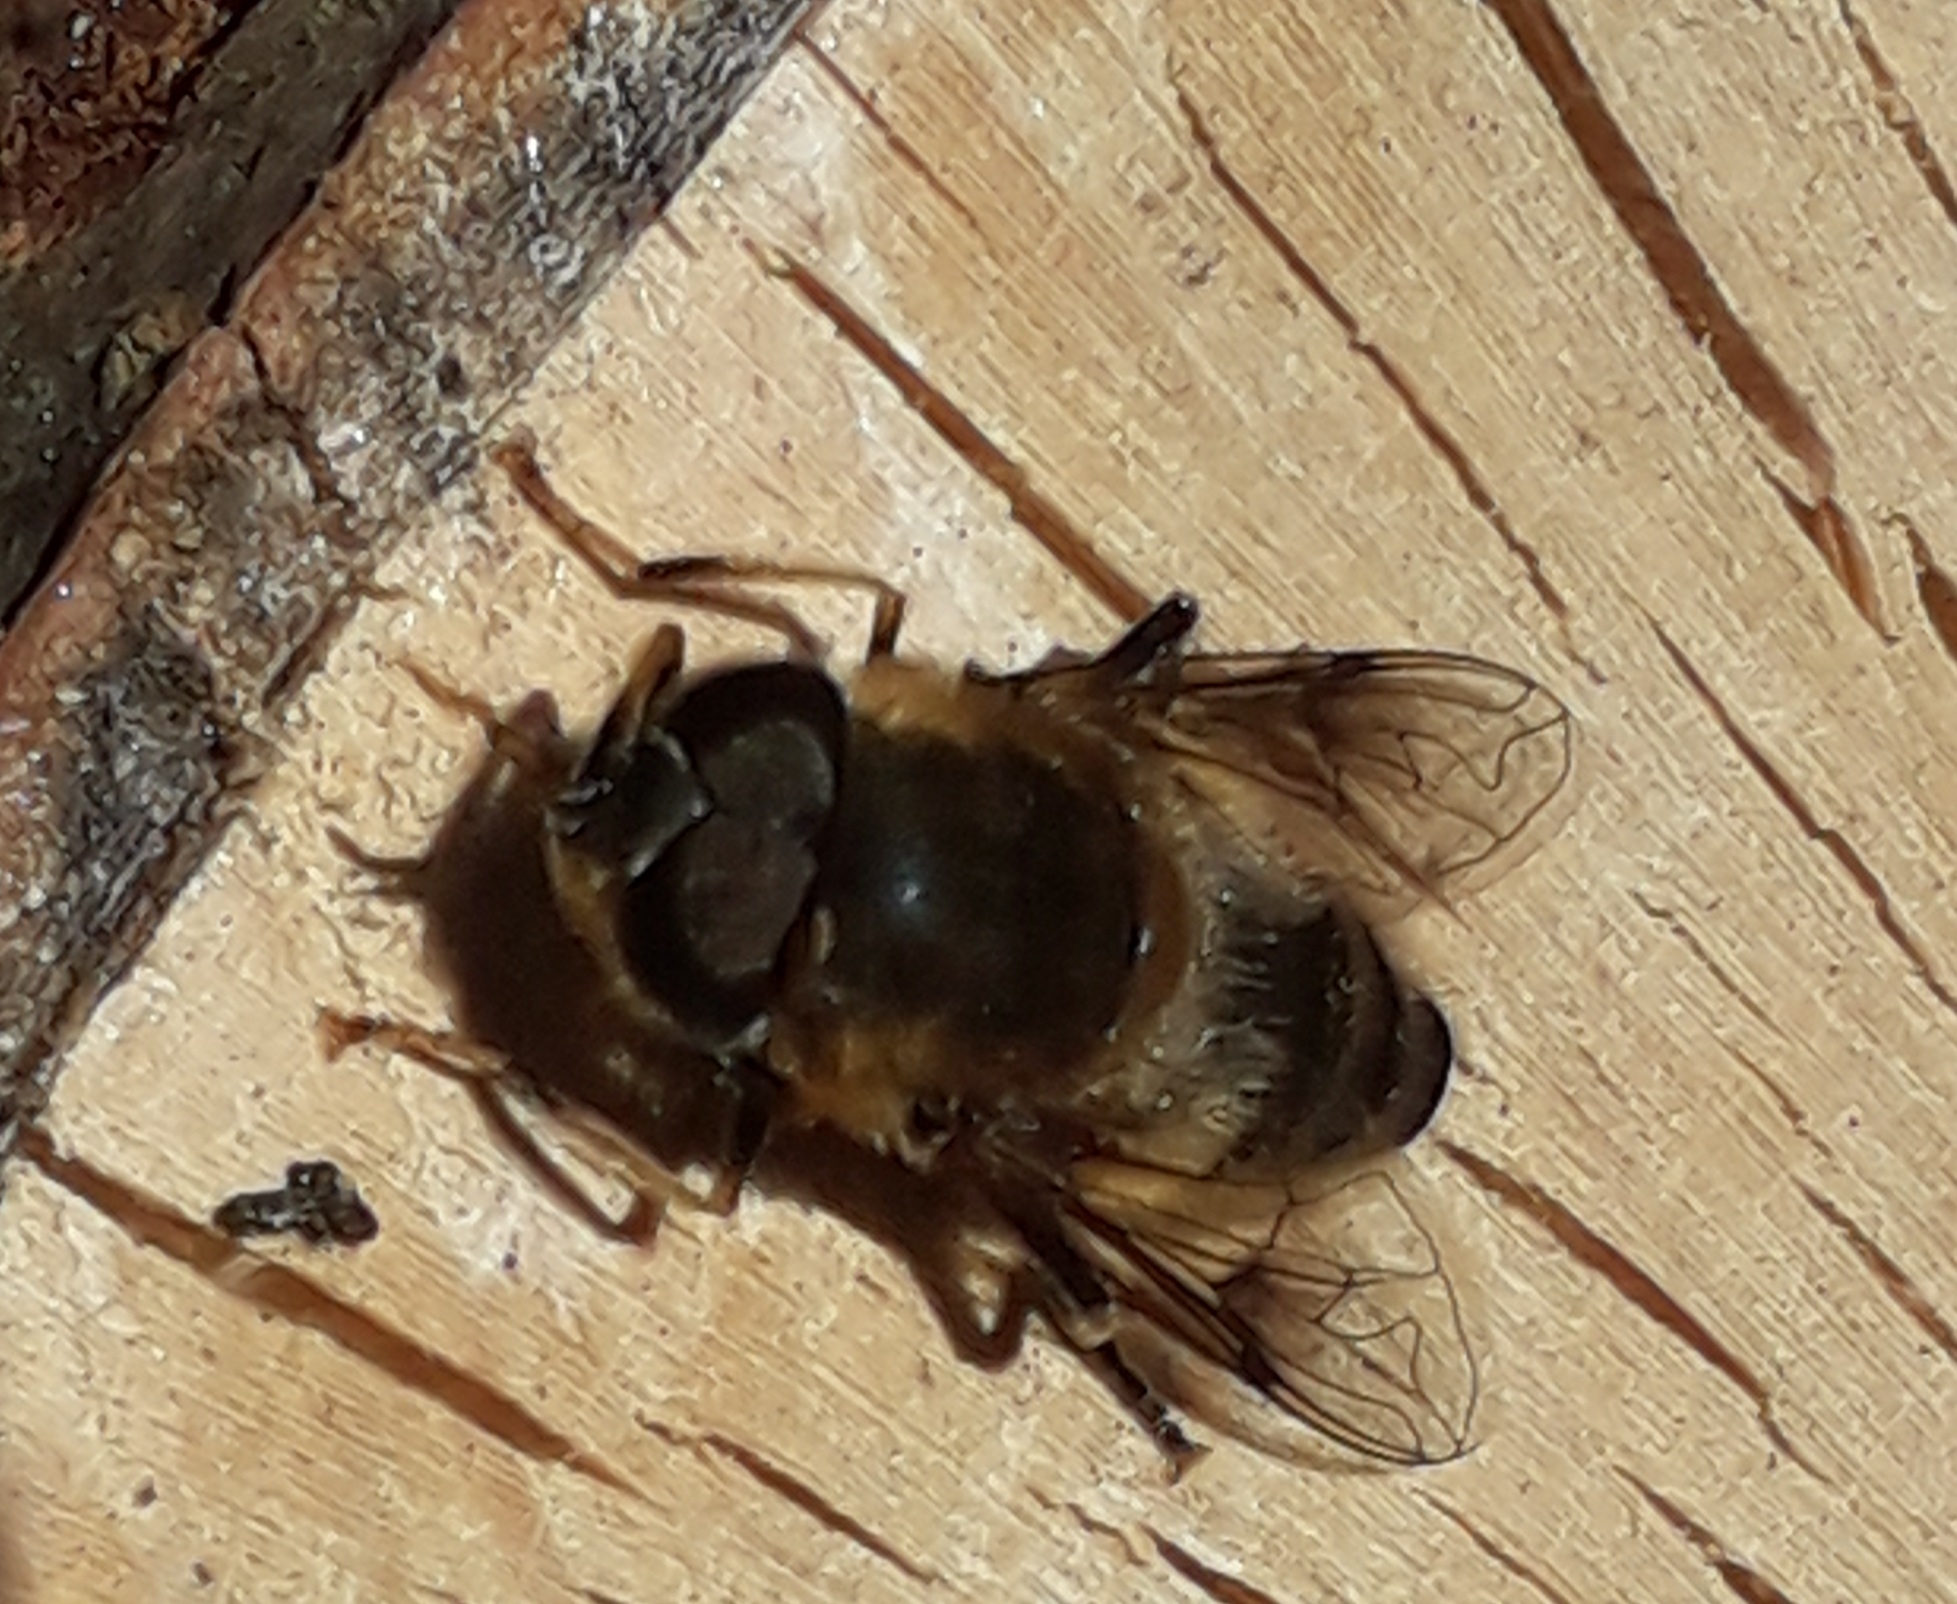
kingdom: Animalia
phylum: Arthropoda
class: Insecta
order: Diptera
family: Syrphidae
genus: Eristalis
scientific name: Eristalis pertinax
